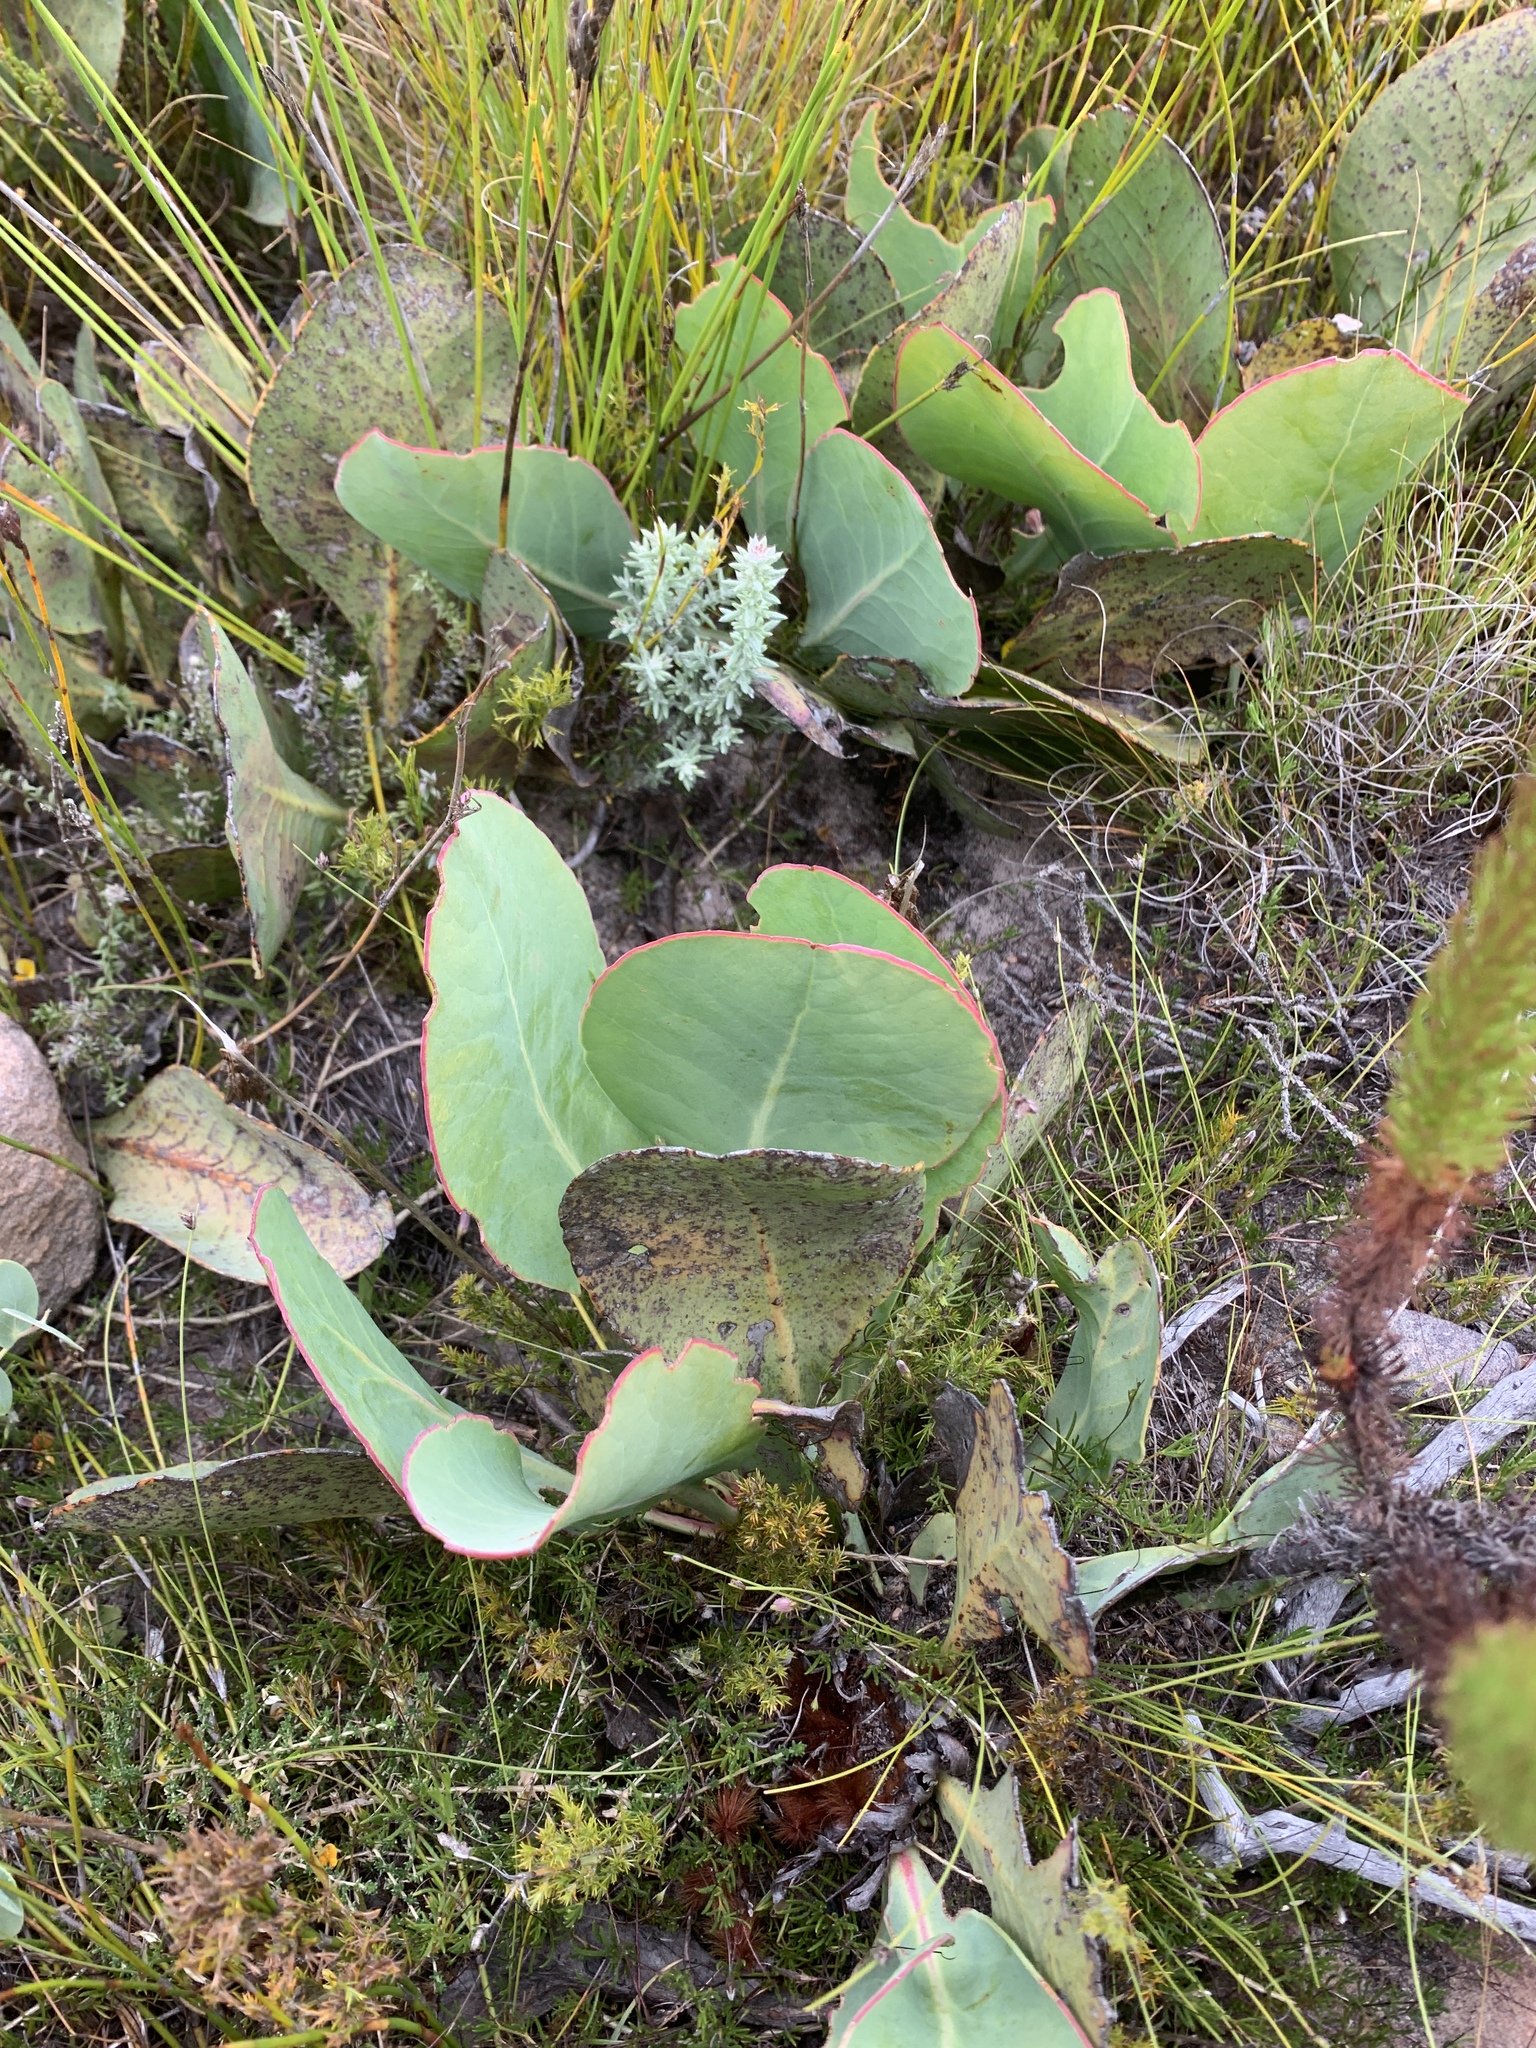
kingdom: Plantae
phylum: Tracheophyta
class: Magnoliopsida
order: Proteales
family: Proteaceae
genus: Protea
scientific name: Protea acaulos
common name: Common ground sugarbush
